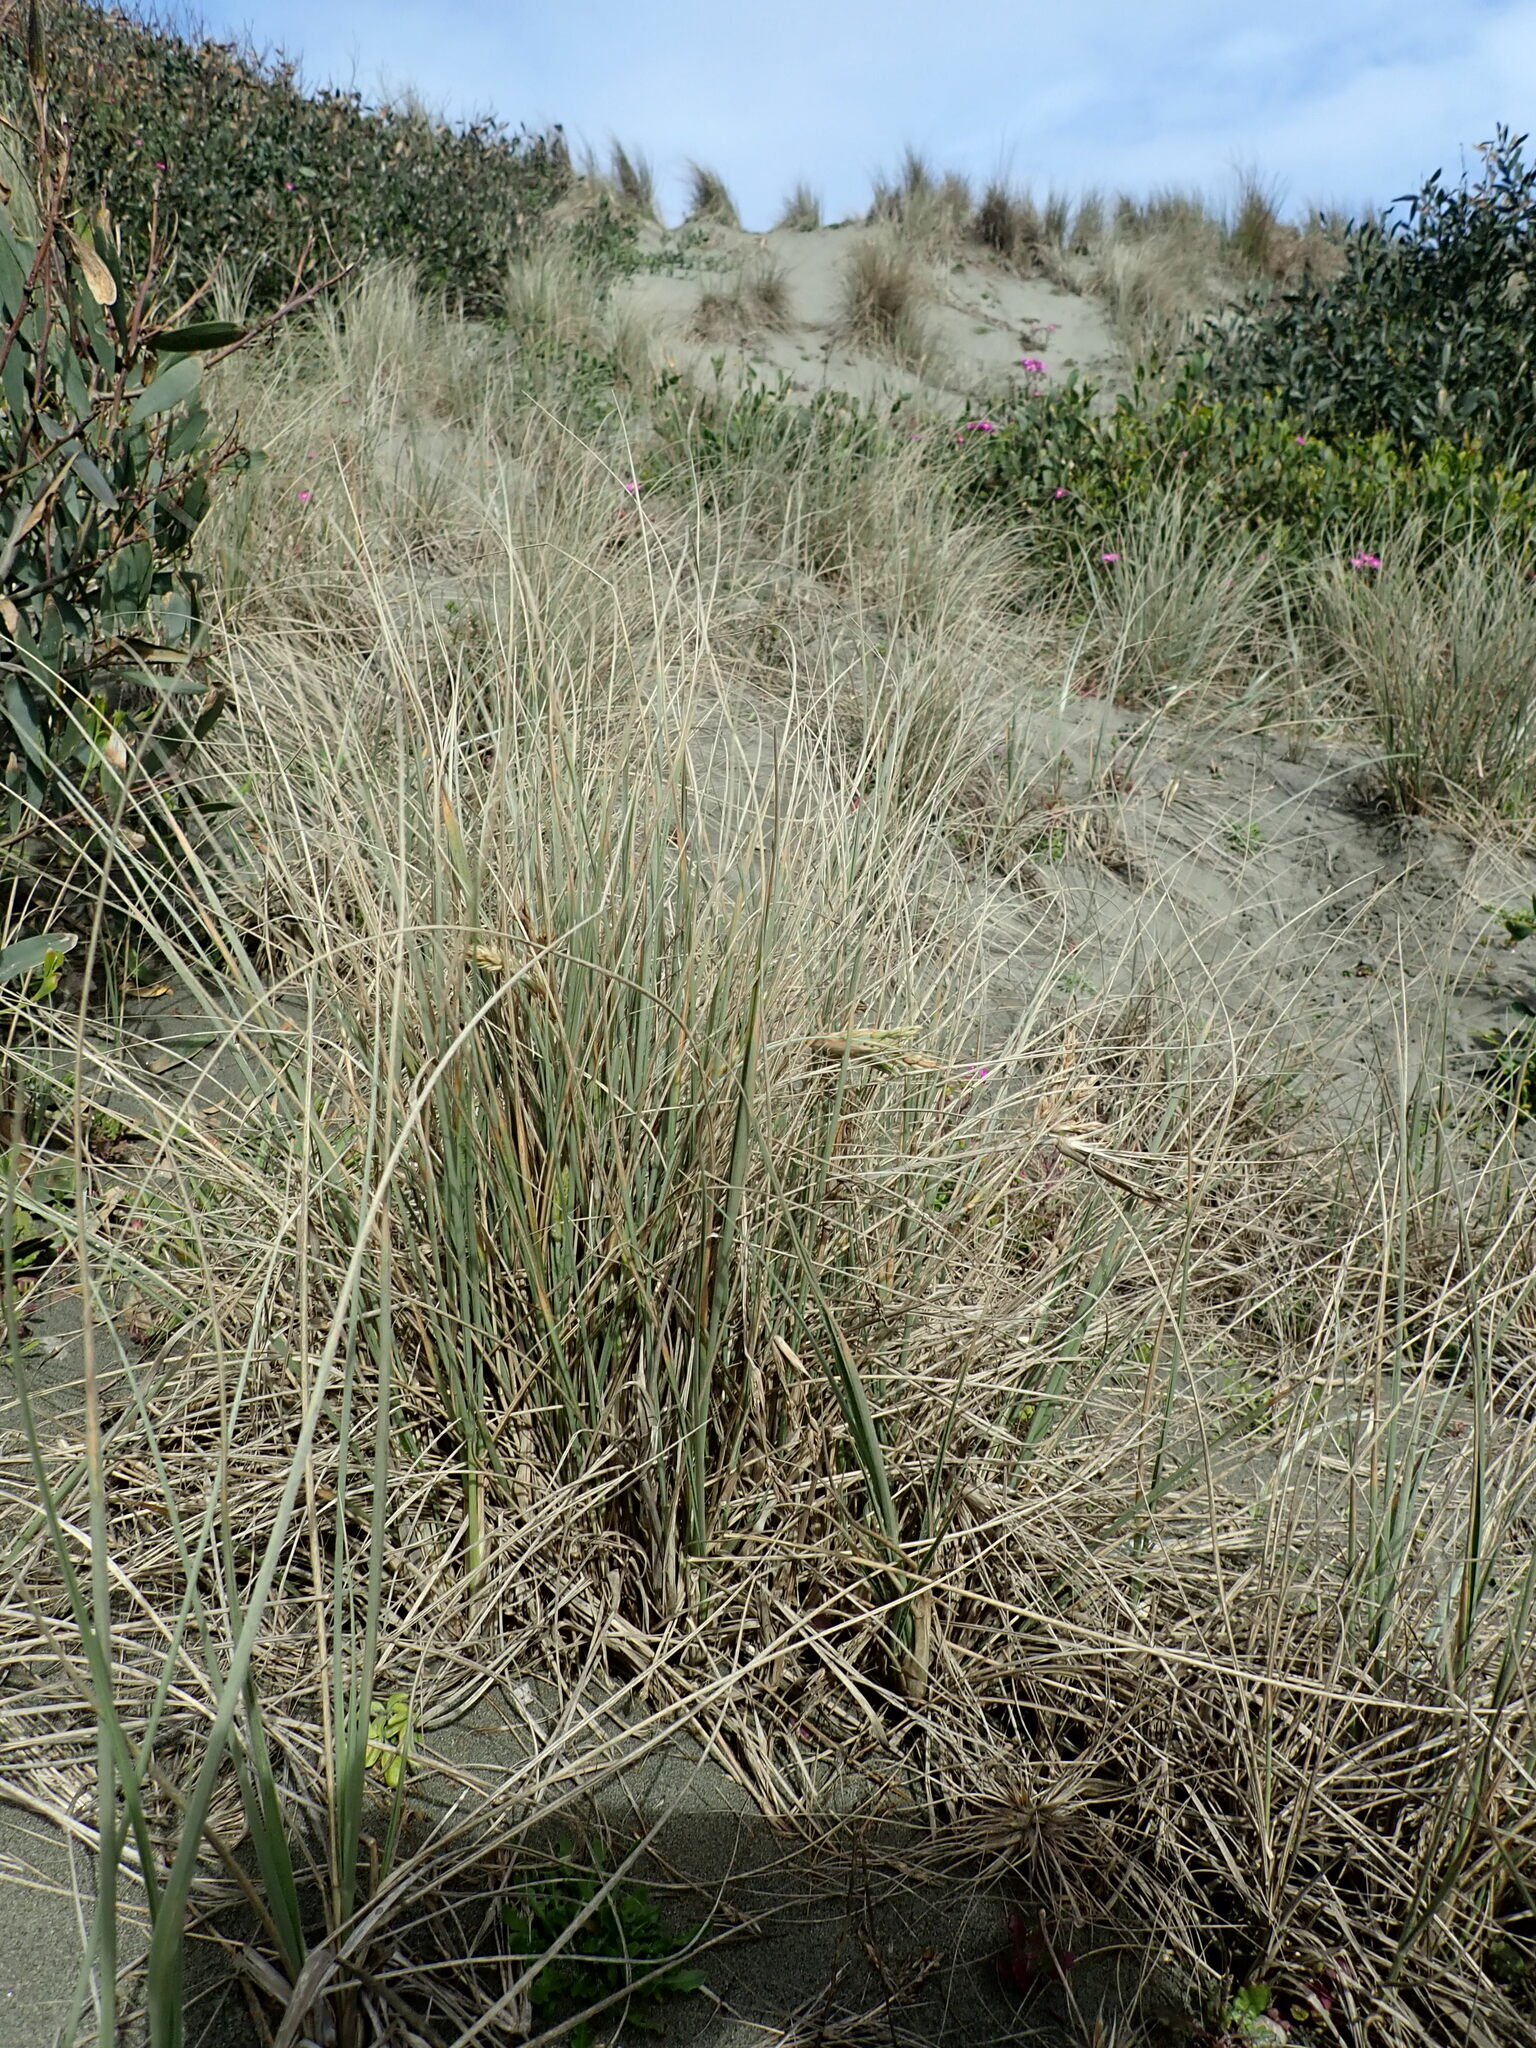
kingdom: Plantae
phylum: Tracheophyta
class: Liliopsida
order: Poales
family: Poaceae
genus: Spinifex
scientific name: Spinifex sericeus
